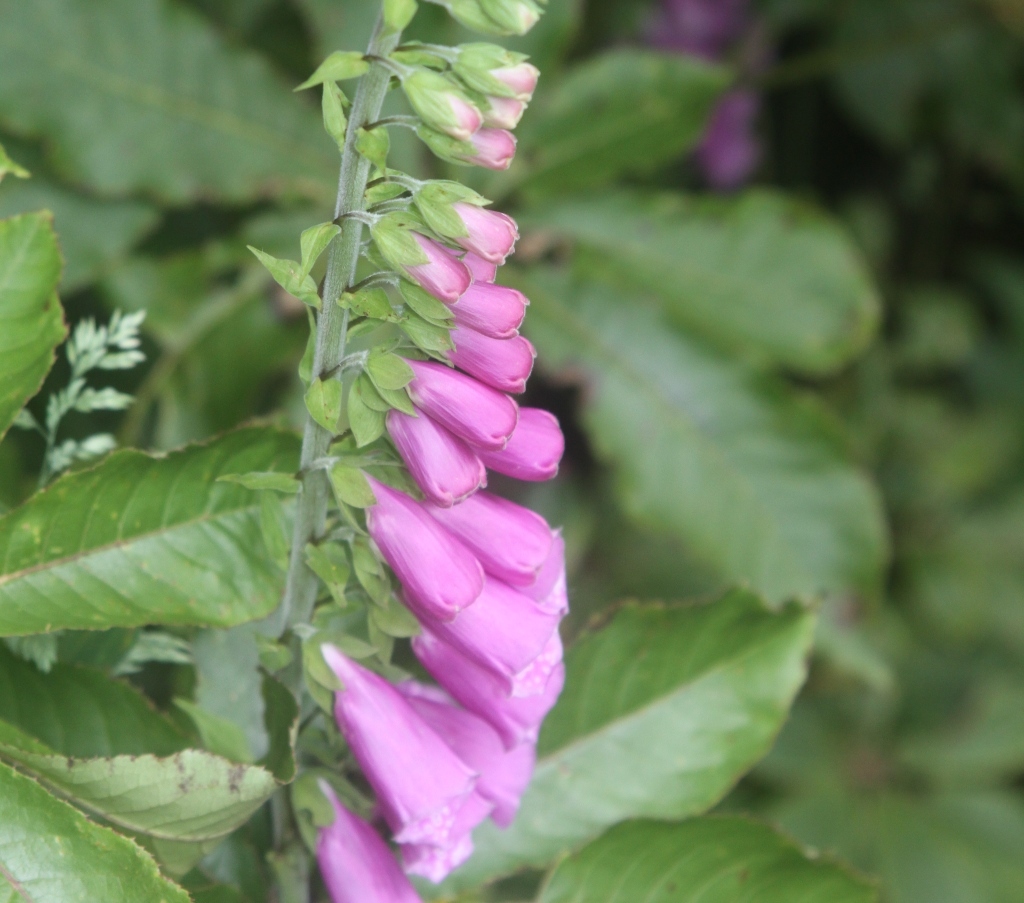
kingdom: Plantae
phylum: Tracheophyta
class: Magnoliopsida
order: Lamiales
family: Plantaginaceae
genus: Digitalis
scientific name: Digitalis purpurea
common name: Foxglove
